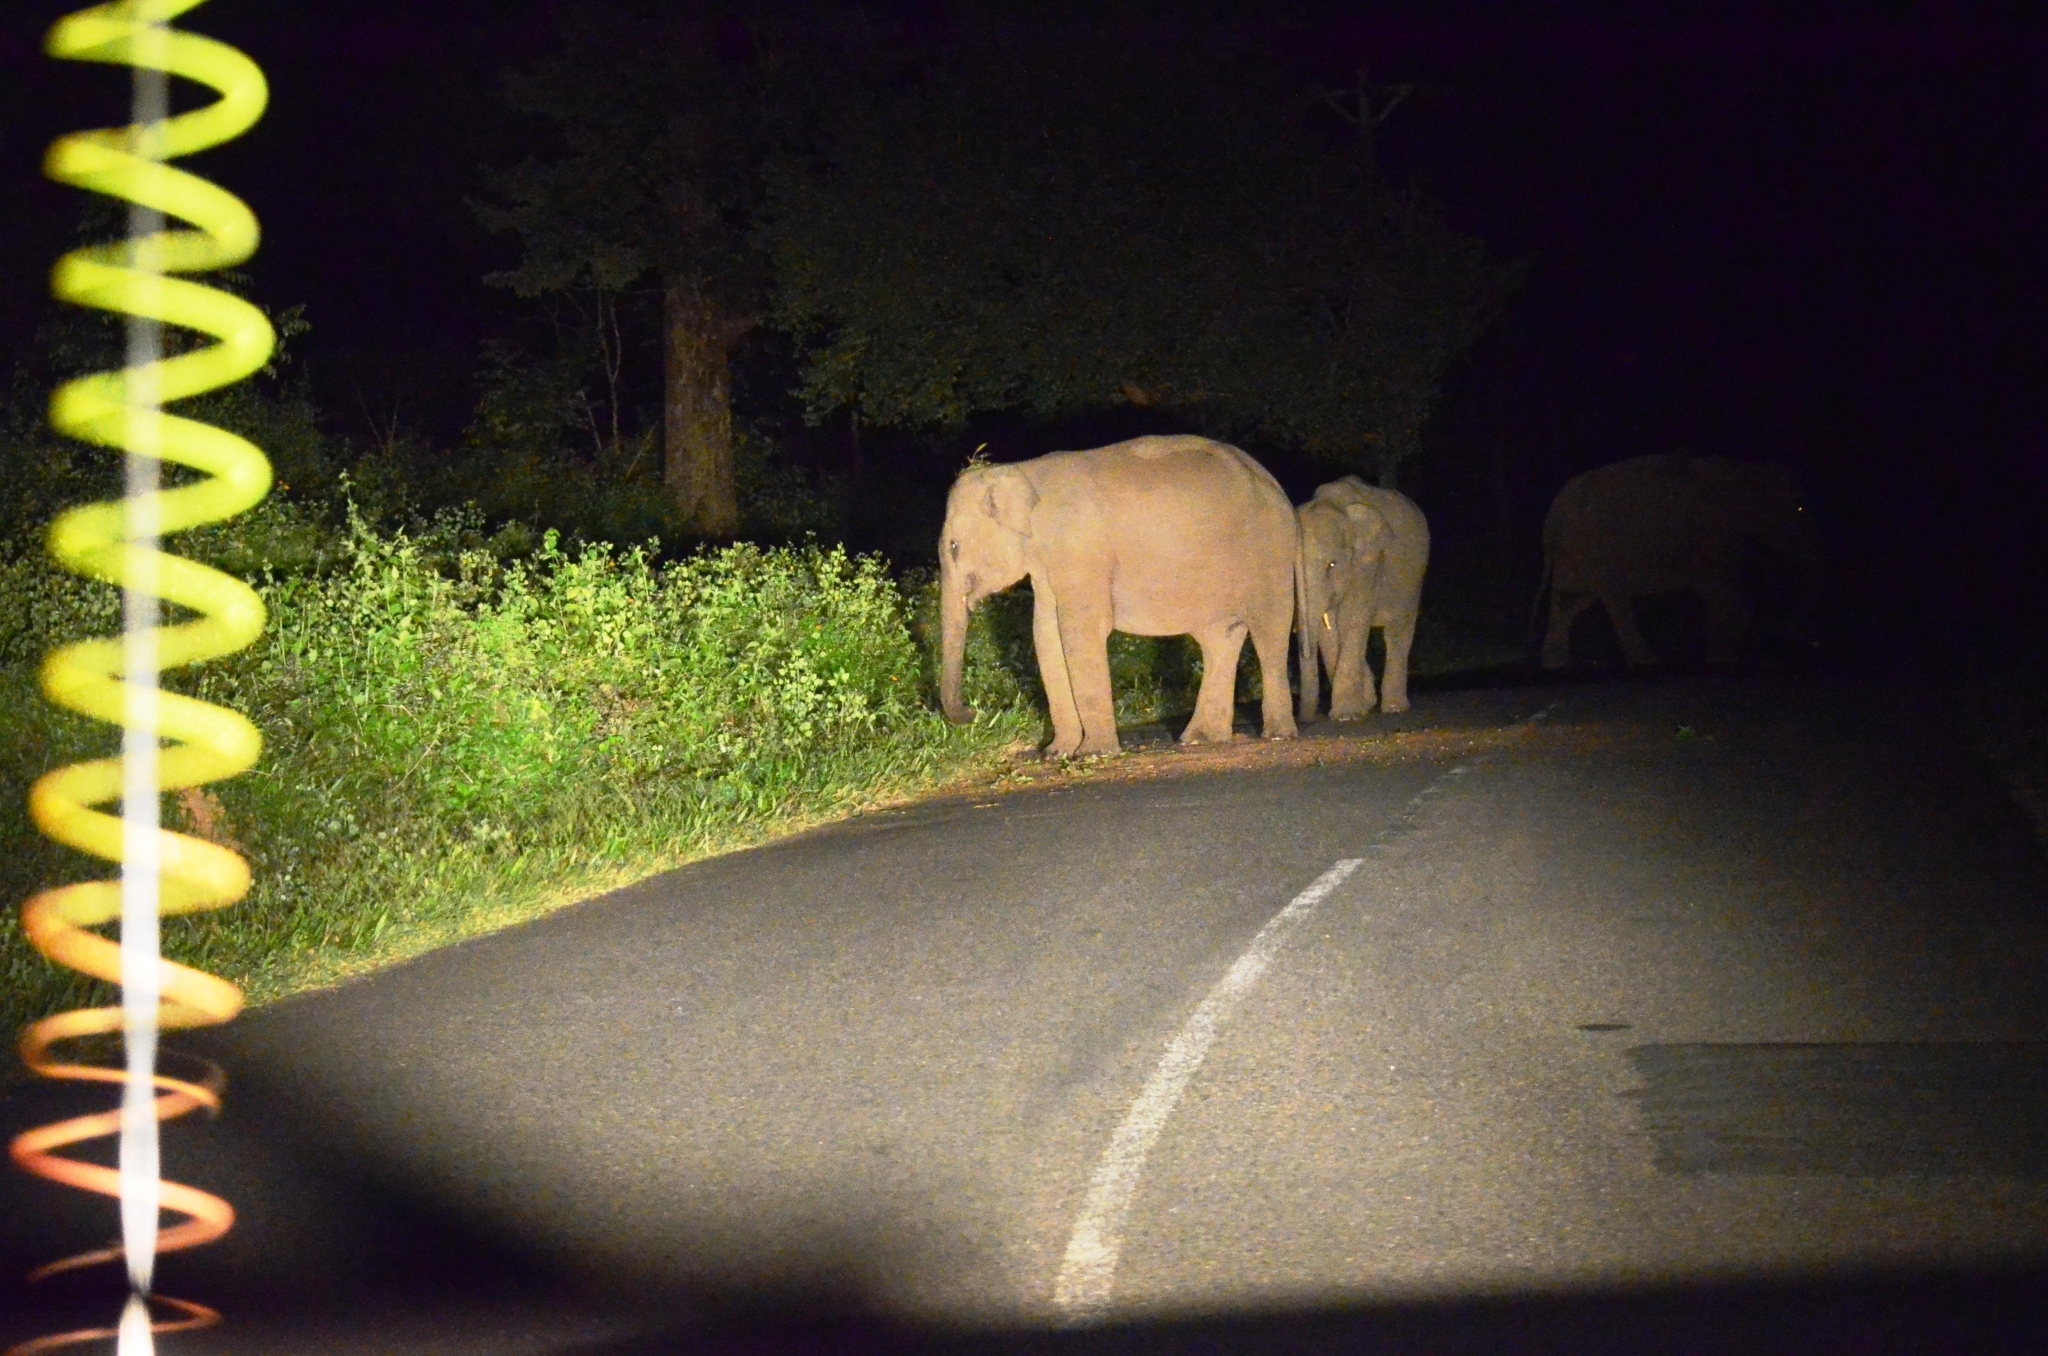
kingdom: Animalia
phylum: Chordata
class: Mammalia
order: Proboscidea
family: Elephantidae
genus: Elephas
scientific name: Elephas maximus
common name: Asian elephant
